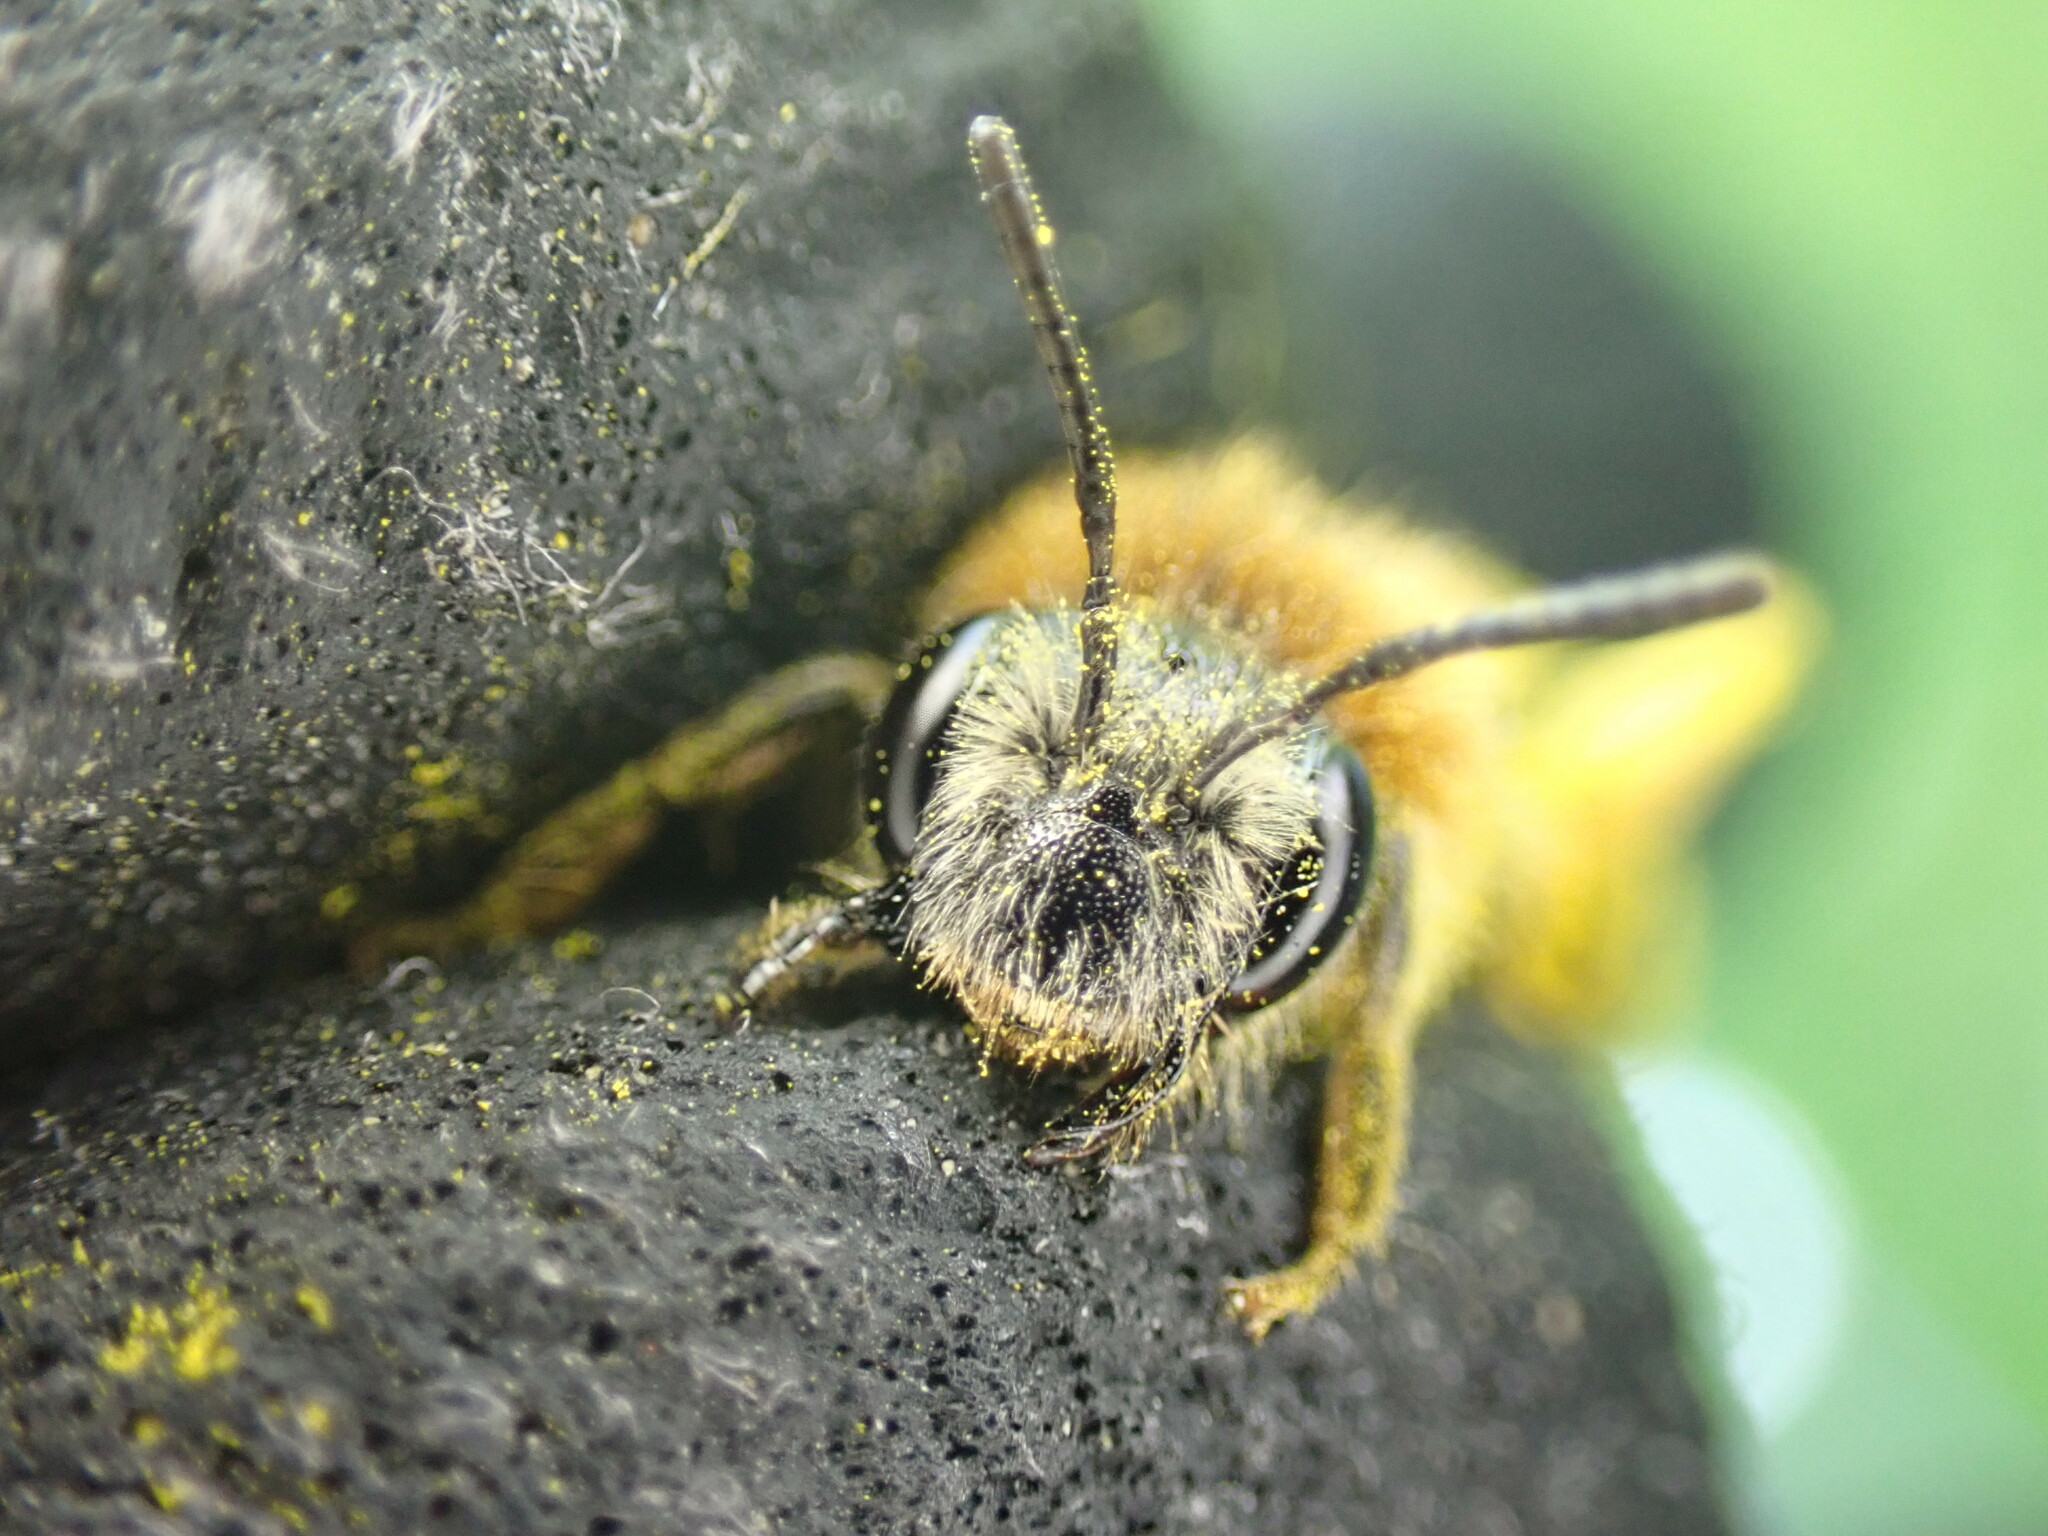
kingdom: Animalia
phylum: Arthropoda
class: Insecta
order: Hymenoptera
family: Andrenidae
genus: Andrena
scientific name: Andrena haemorrhoa
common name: Early mining bee
